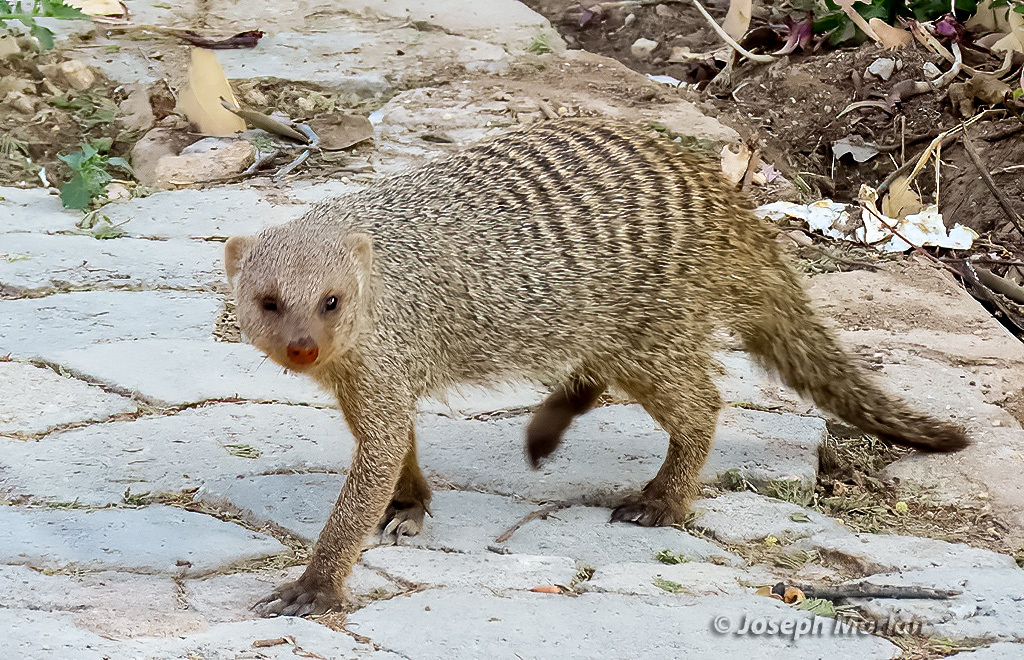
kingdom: Animalia
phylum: Chordata
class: Mammalia
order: Carnivora
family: Herpestidae
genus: Mungos
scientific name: Mungos mungo
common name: Banded mongoose
